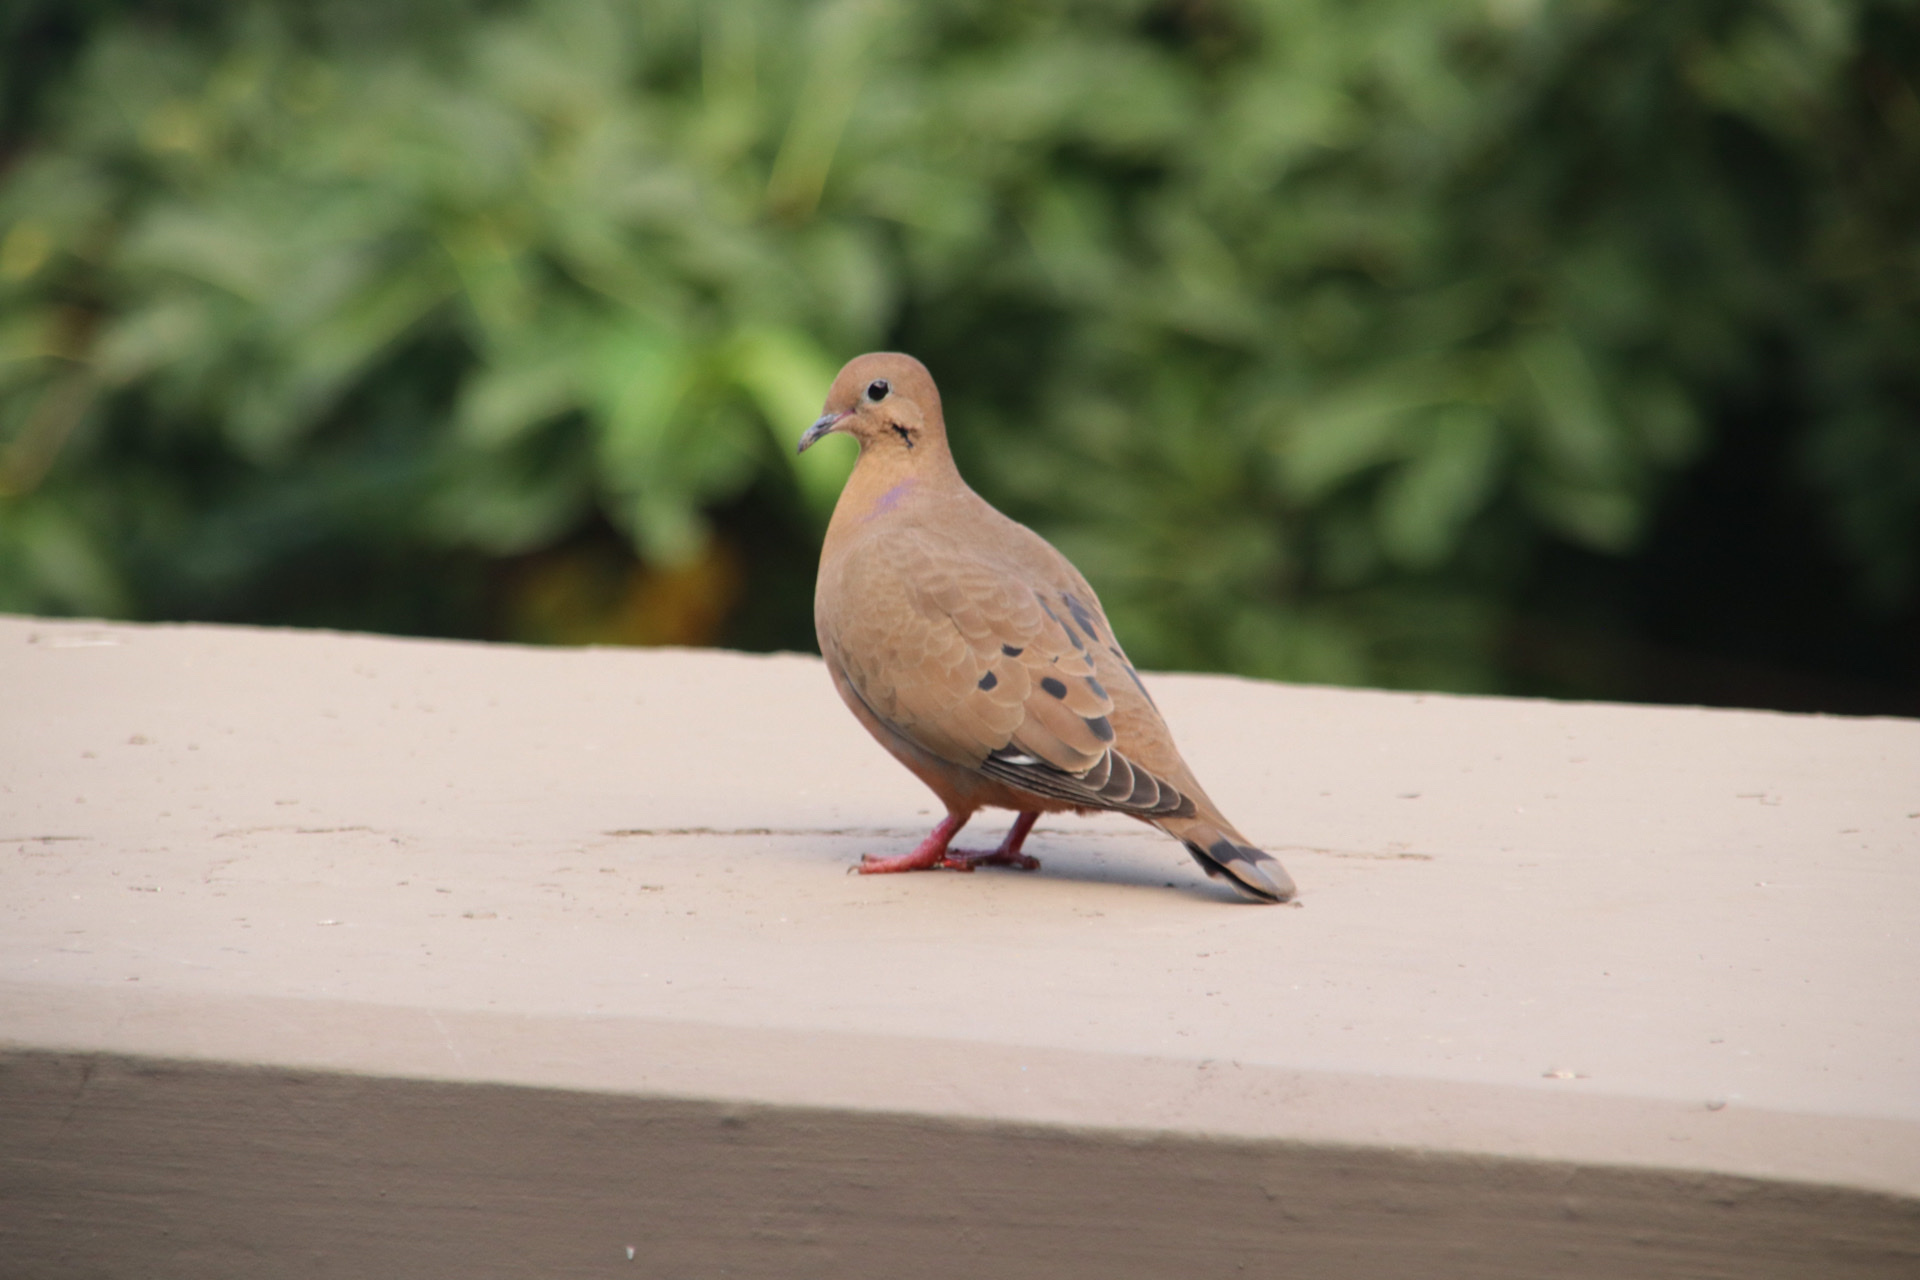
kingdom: Animalia
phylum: Chordata
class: Aves
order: Columbiformes
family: Columbidae
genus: Zenaida
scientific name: Zenaida aurita
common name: Zenaida dove
